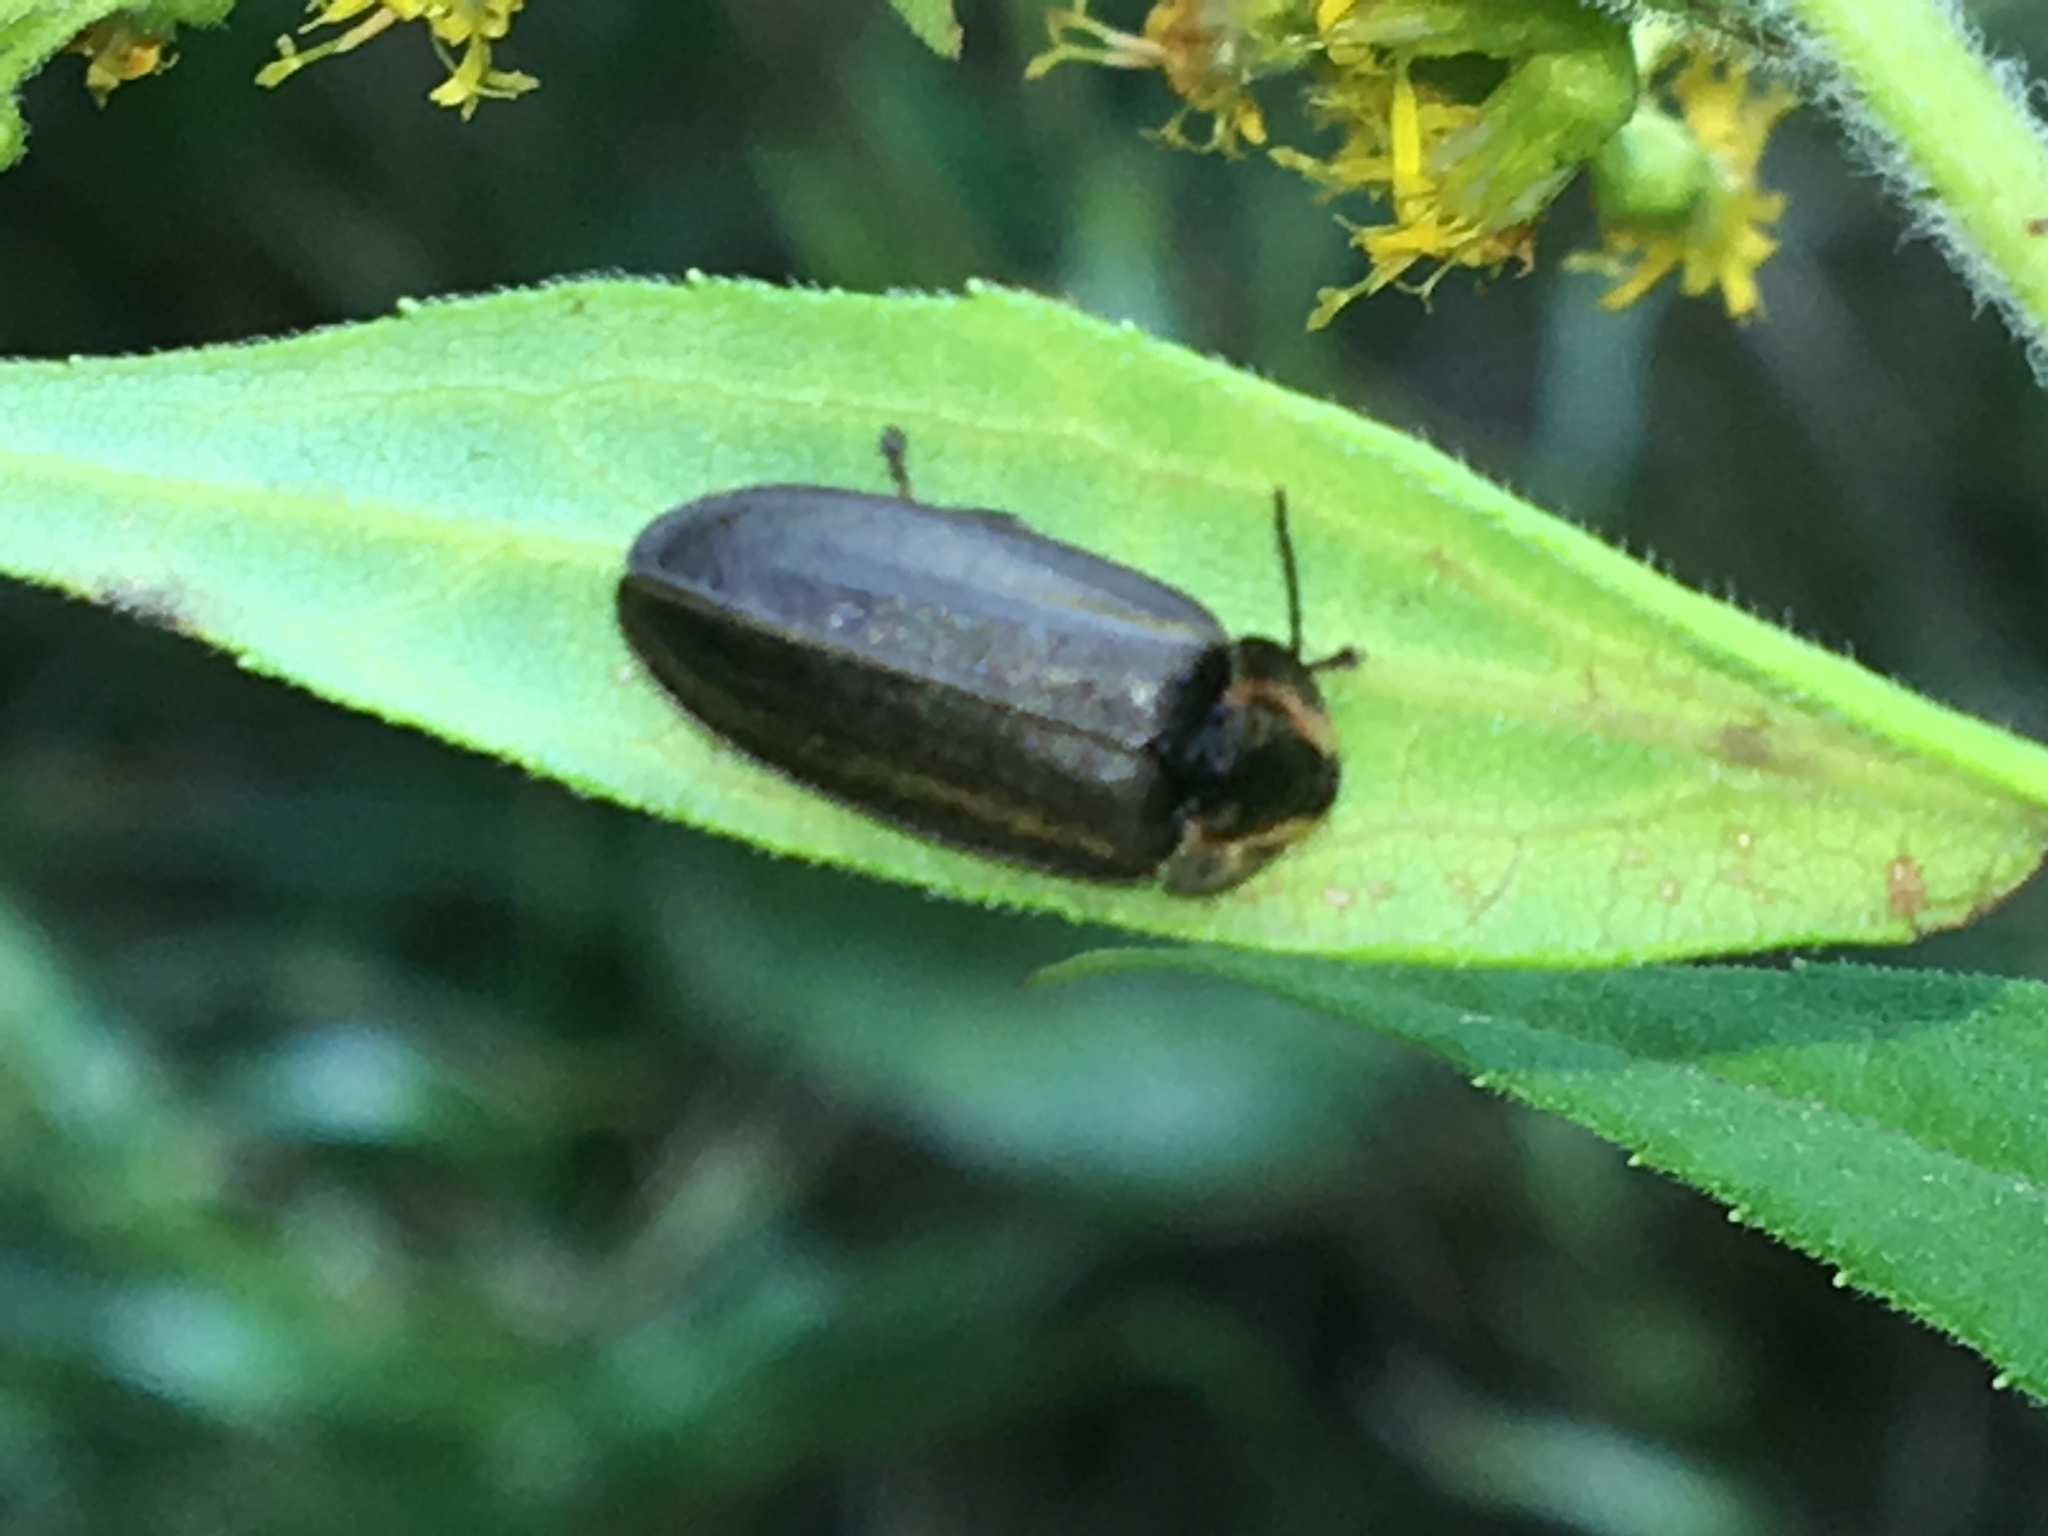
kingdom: Animalia
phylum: Arthropoda
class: Insecta
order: Coleoptera
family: Lampyridae
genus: Photinus
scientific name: Photinus corrusca
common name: Winter firefly
